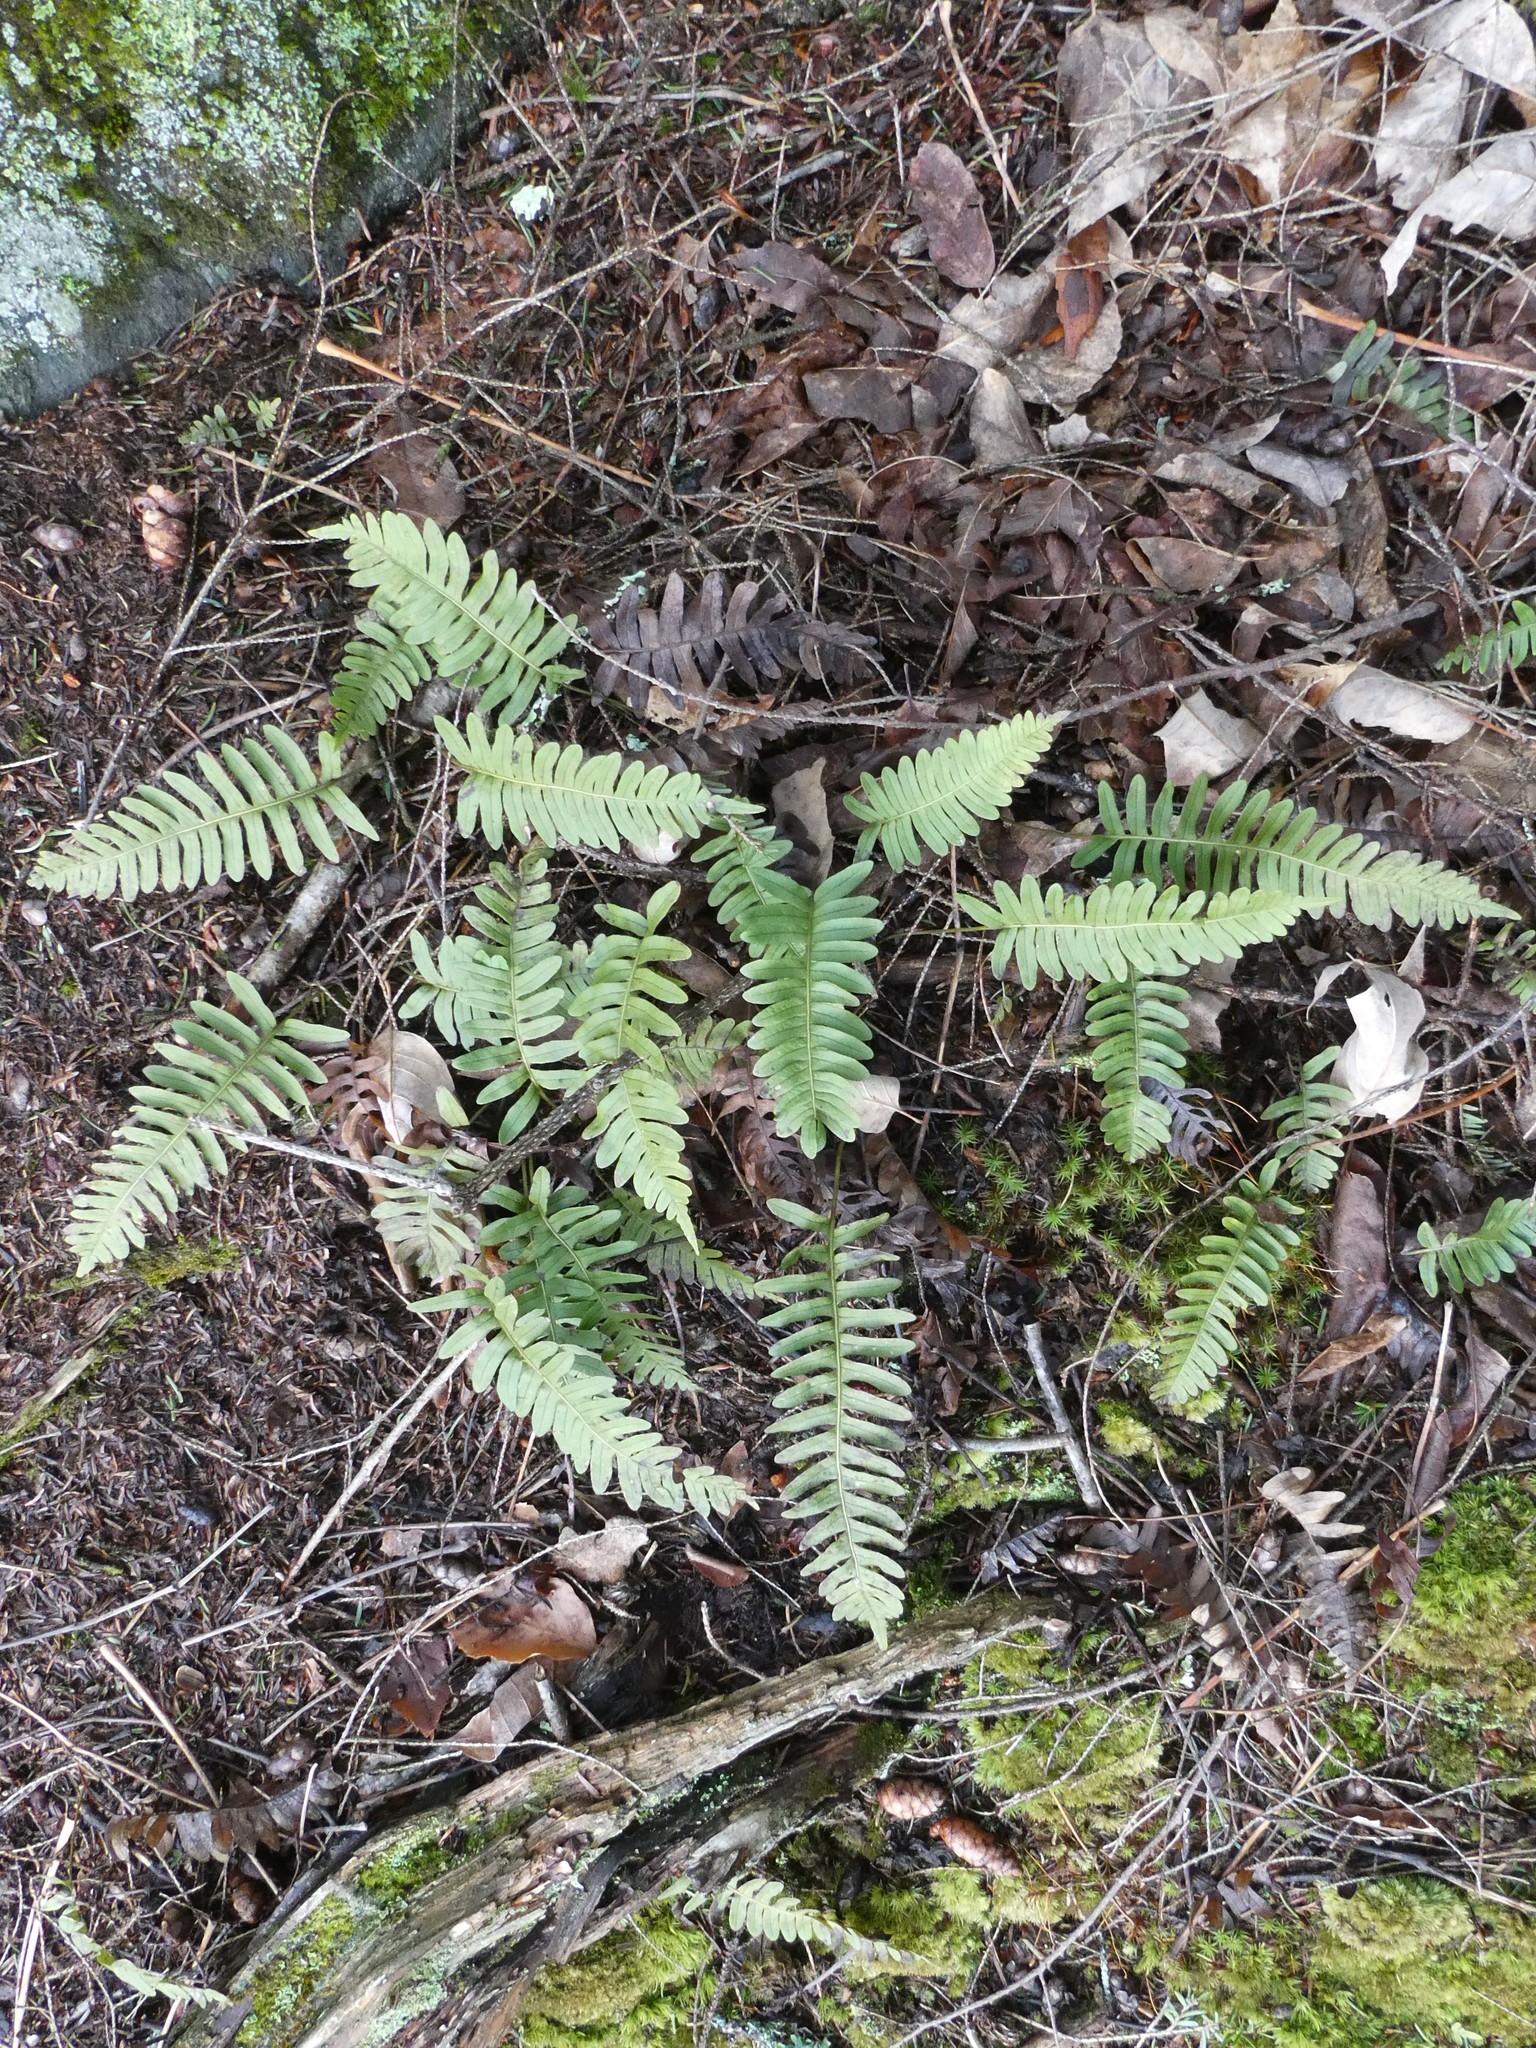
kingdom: Plantae
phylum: Tracheophyta
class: Polypodiopsida
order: Polypodiales
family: Polypodiaceae
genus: Polypodium
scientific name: Polypodium
